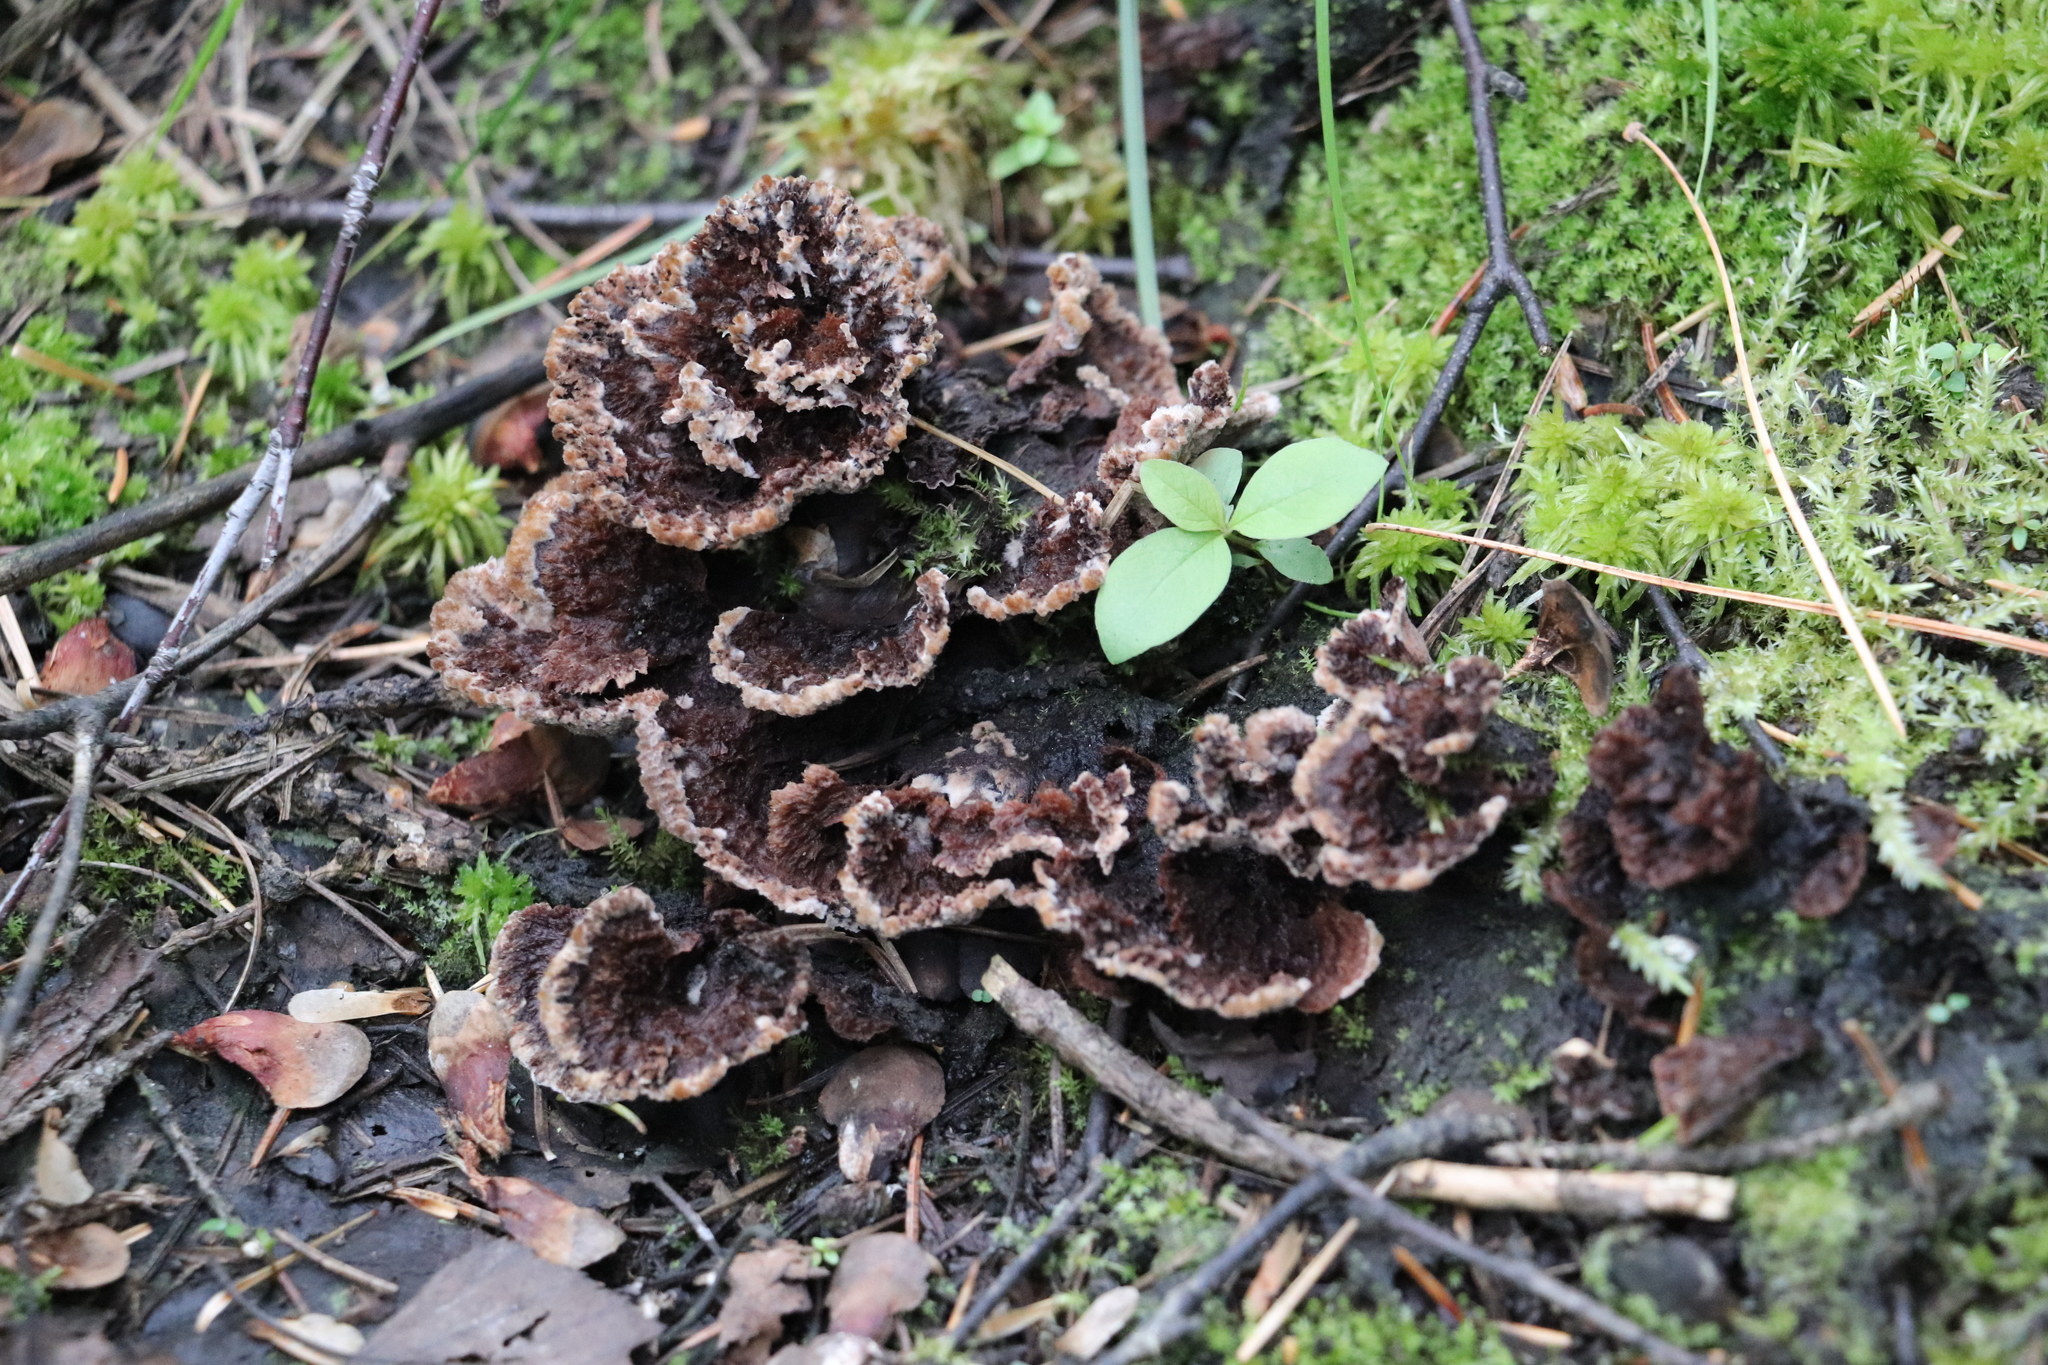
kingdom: Fungi
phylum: Basidiomycota
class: Agaricomycetes
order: Thelephorales
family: Thelephoraceae
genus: Thelephora
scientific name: Thelephora terrestris
